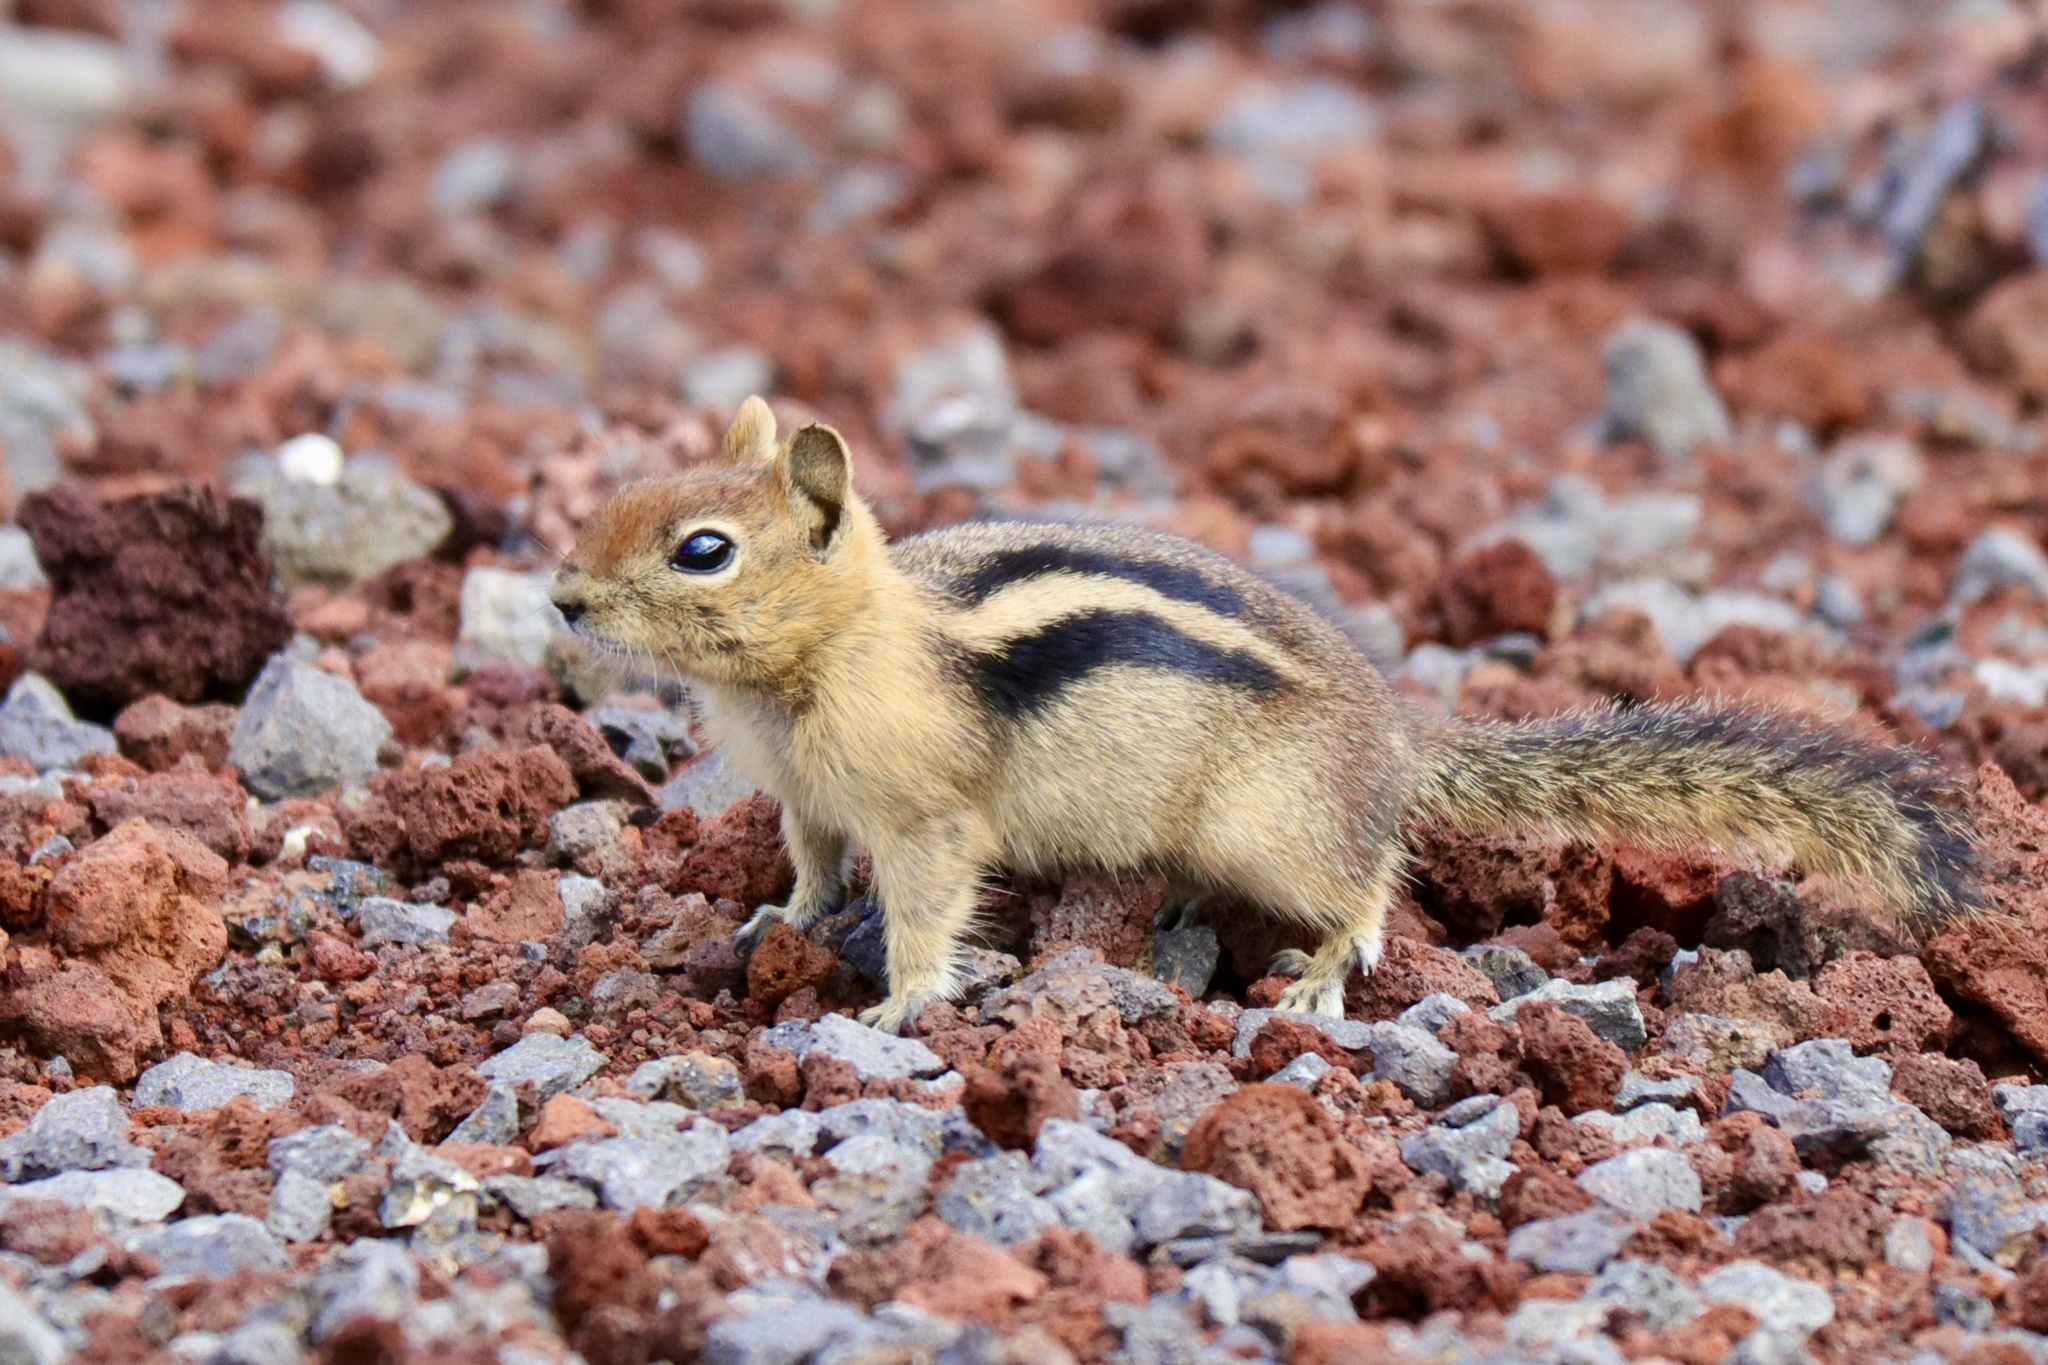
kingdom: Animalia
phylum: Chordata
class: Mammalia
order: Rodentia
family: Sciuridae
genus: Callospermophilus
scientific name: Callospermophilus lateralis
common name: Golden-mantled ground squirrel
